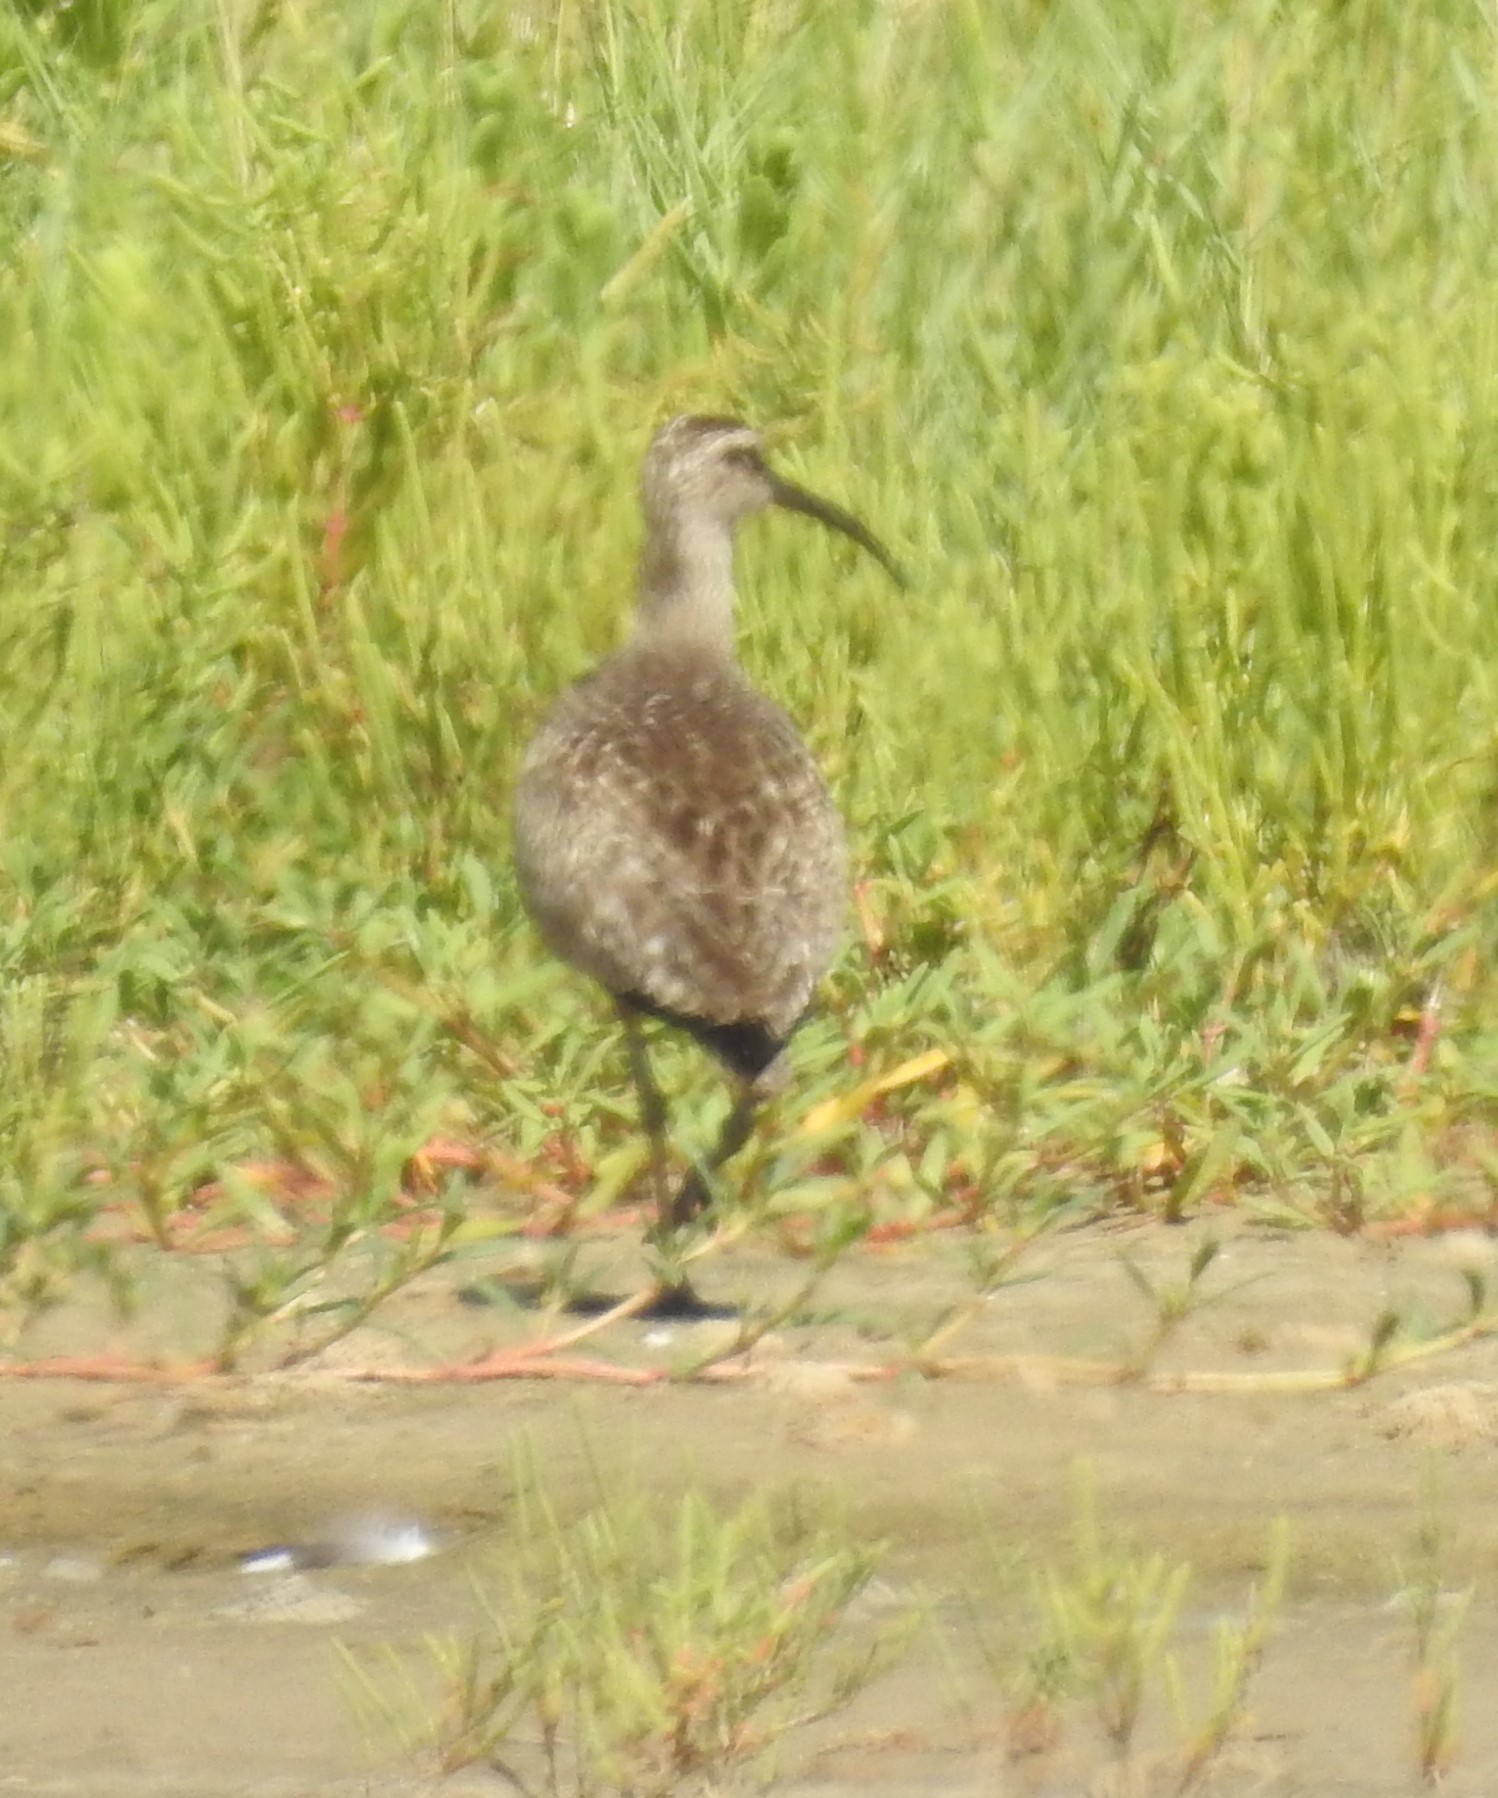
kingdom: Animalia
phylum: Chordata
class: Aves
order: Charadriiformes
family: Scolopacidae
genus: Numenius
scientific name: Numenius phaeopus
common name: Whimbrel
